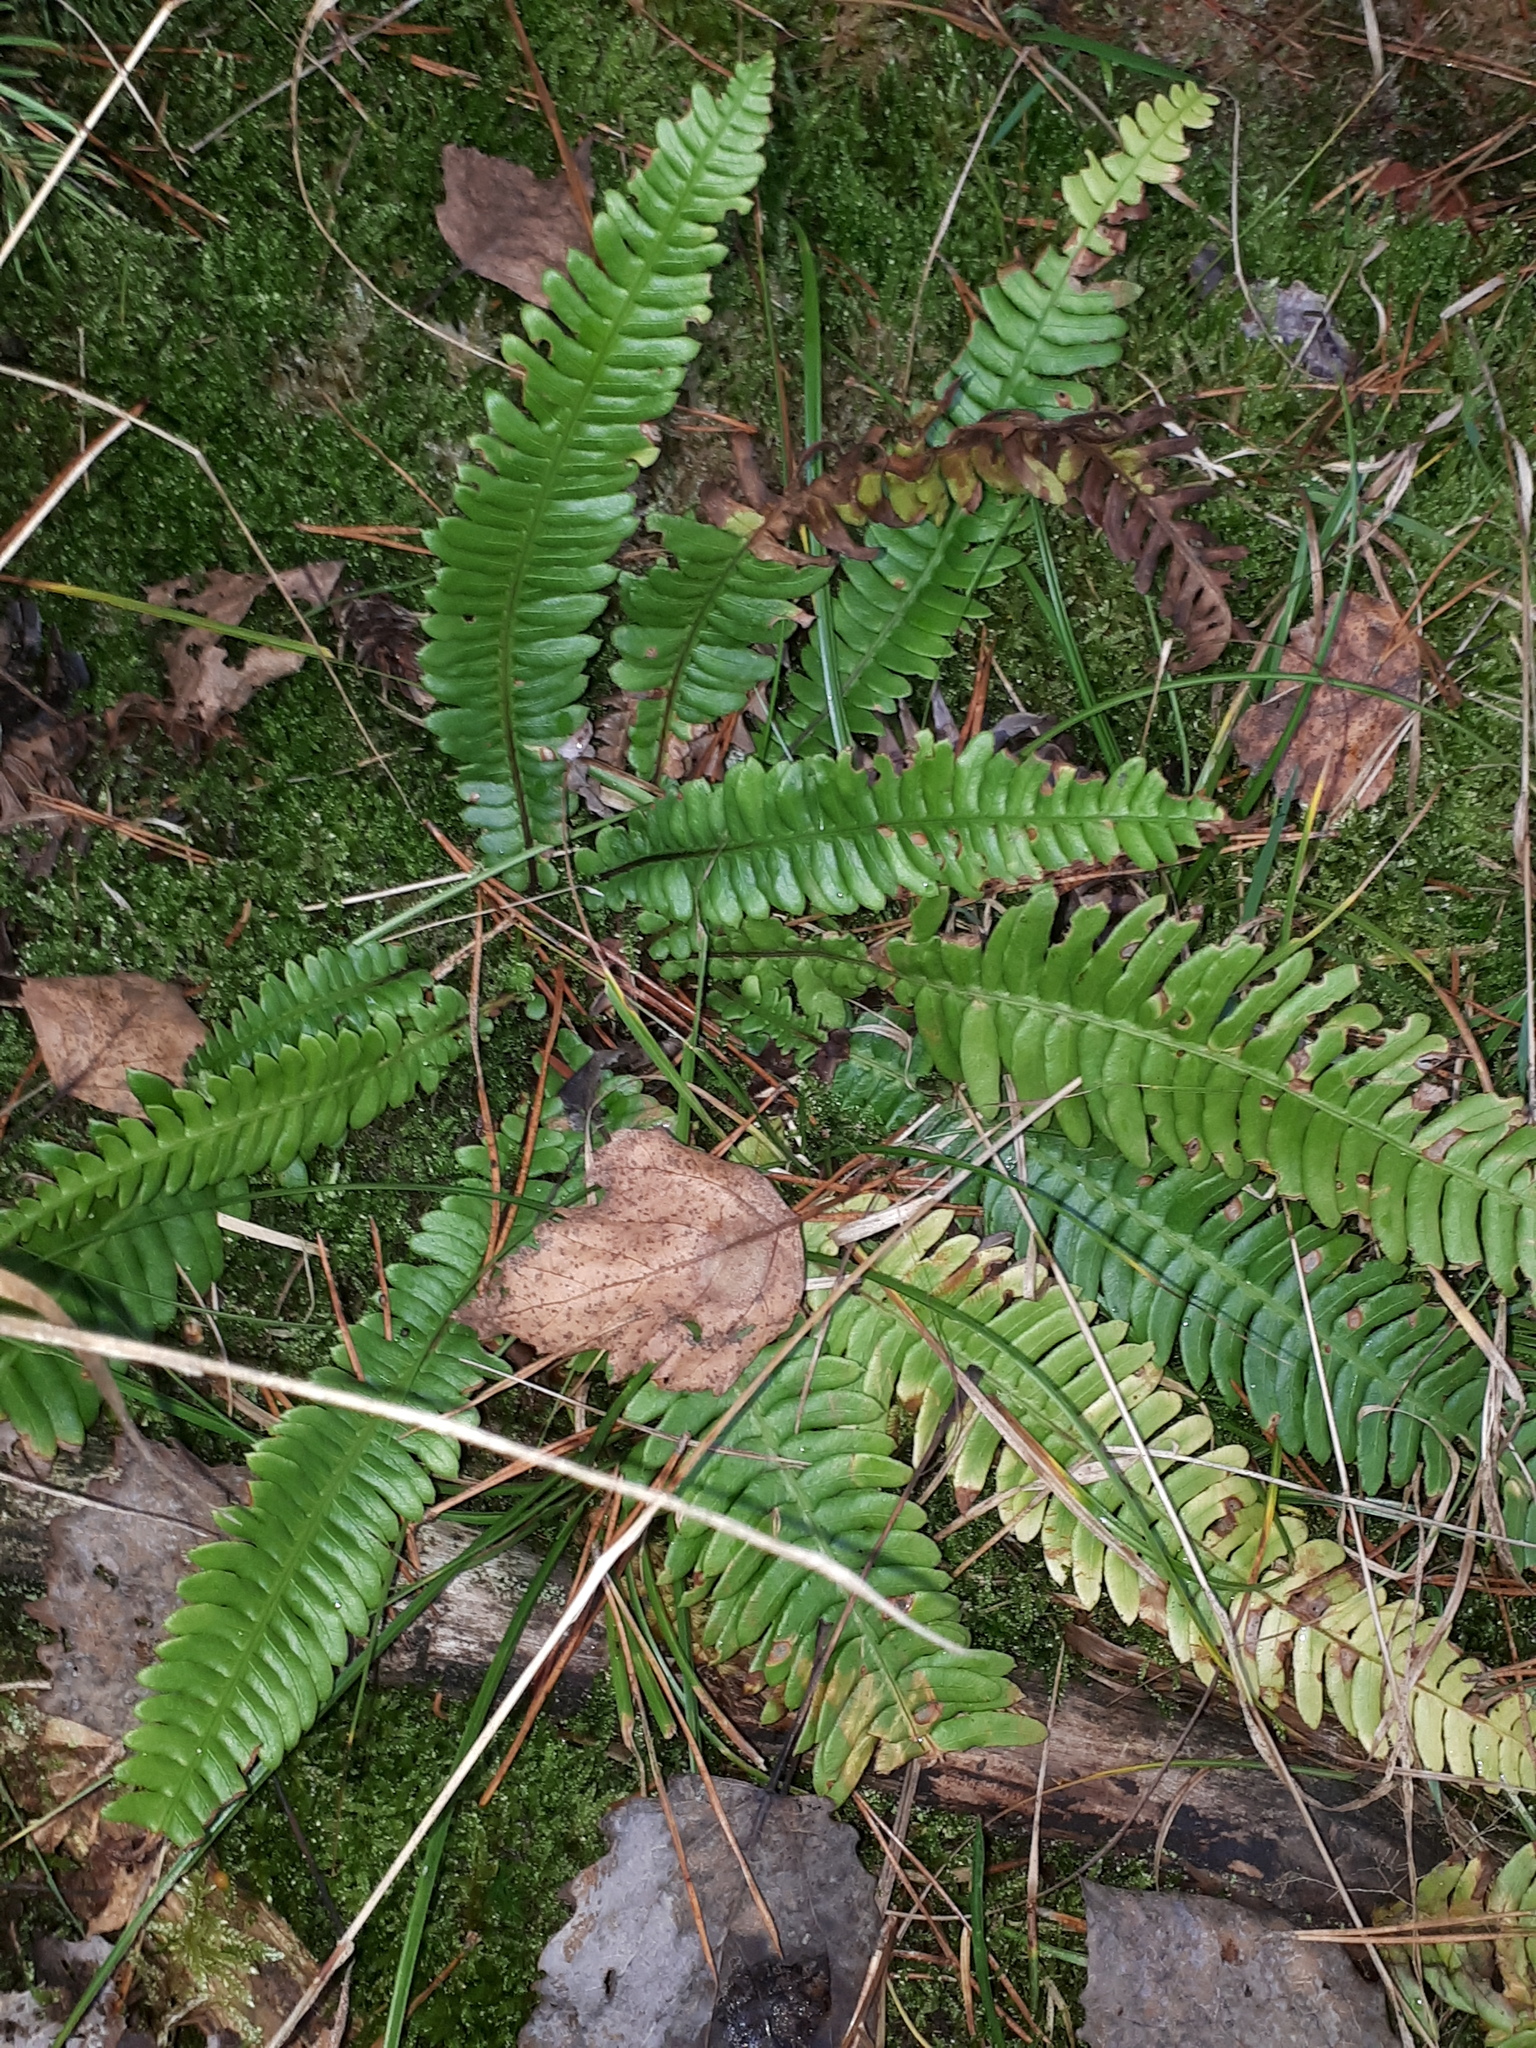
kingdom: Plantae
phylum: Tracheophyta
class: Polypodiopsida
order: Polypodiales
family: Blechnaceae
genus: Struthiopteris
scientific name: Struthiopteris spicant
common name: Deer fern
